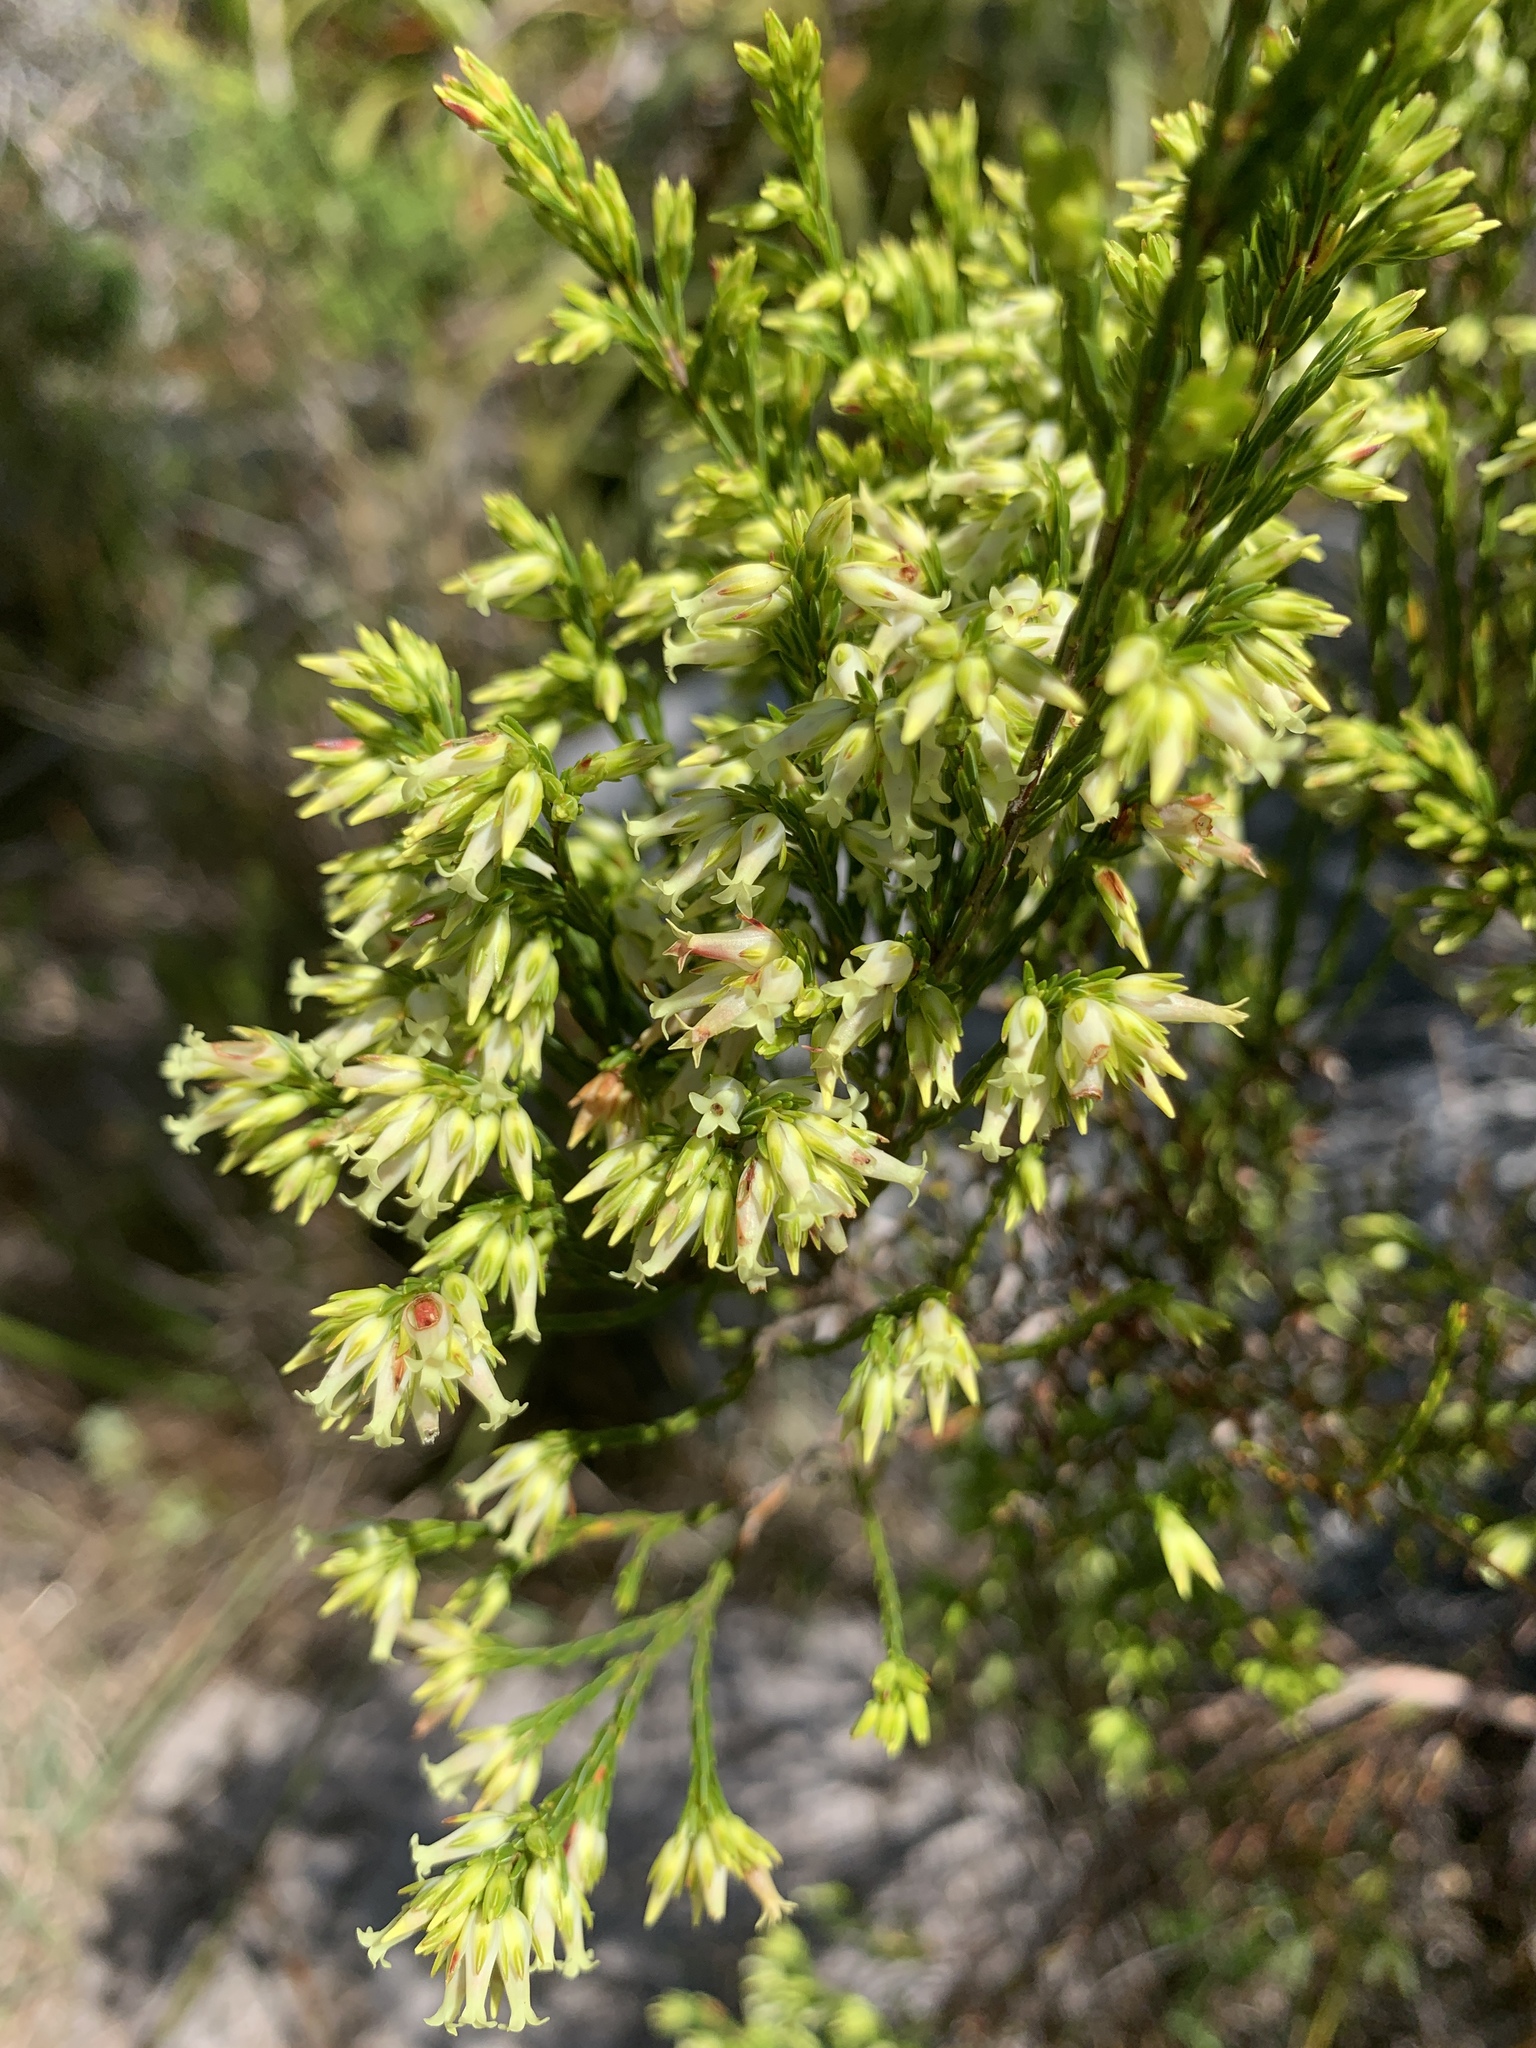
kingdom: Plantae
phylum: Tracheophyta
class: Magnoliopsida
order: Ericales
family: Ericaceae
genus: Erica
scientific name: Erica lutea
